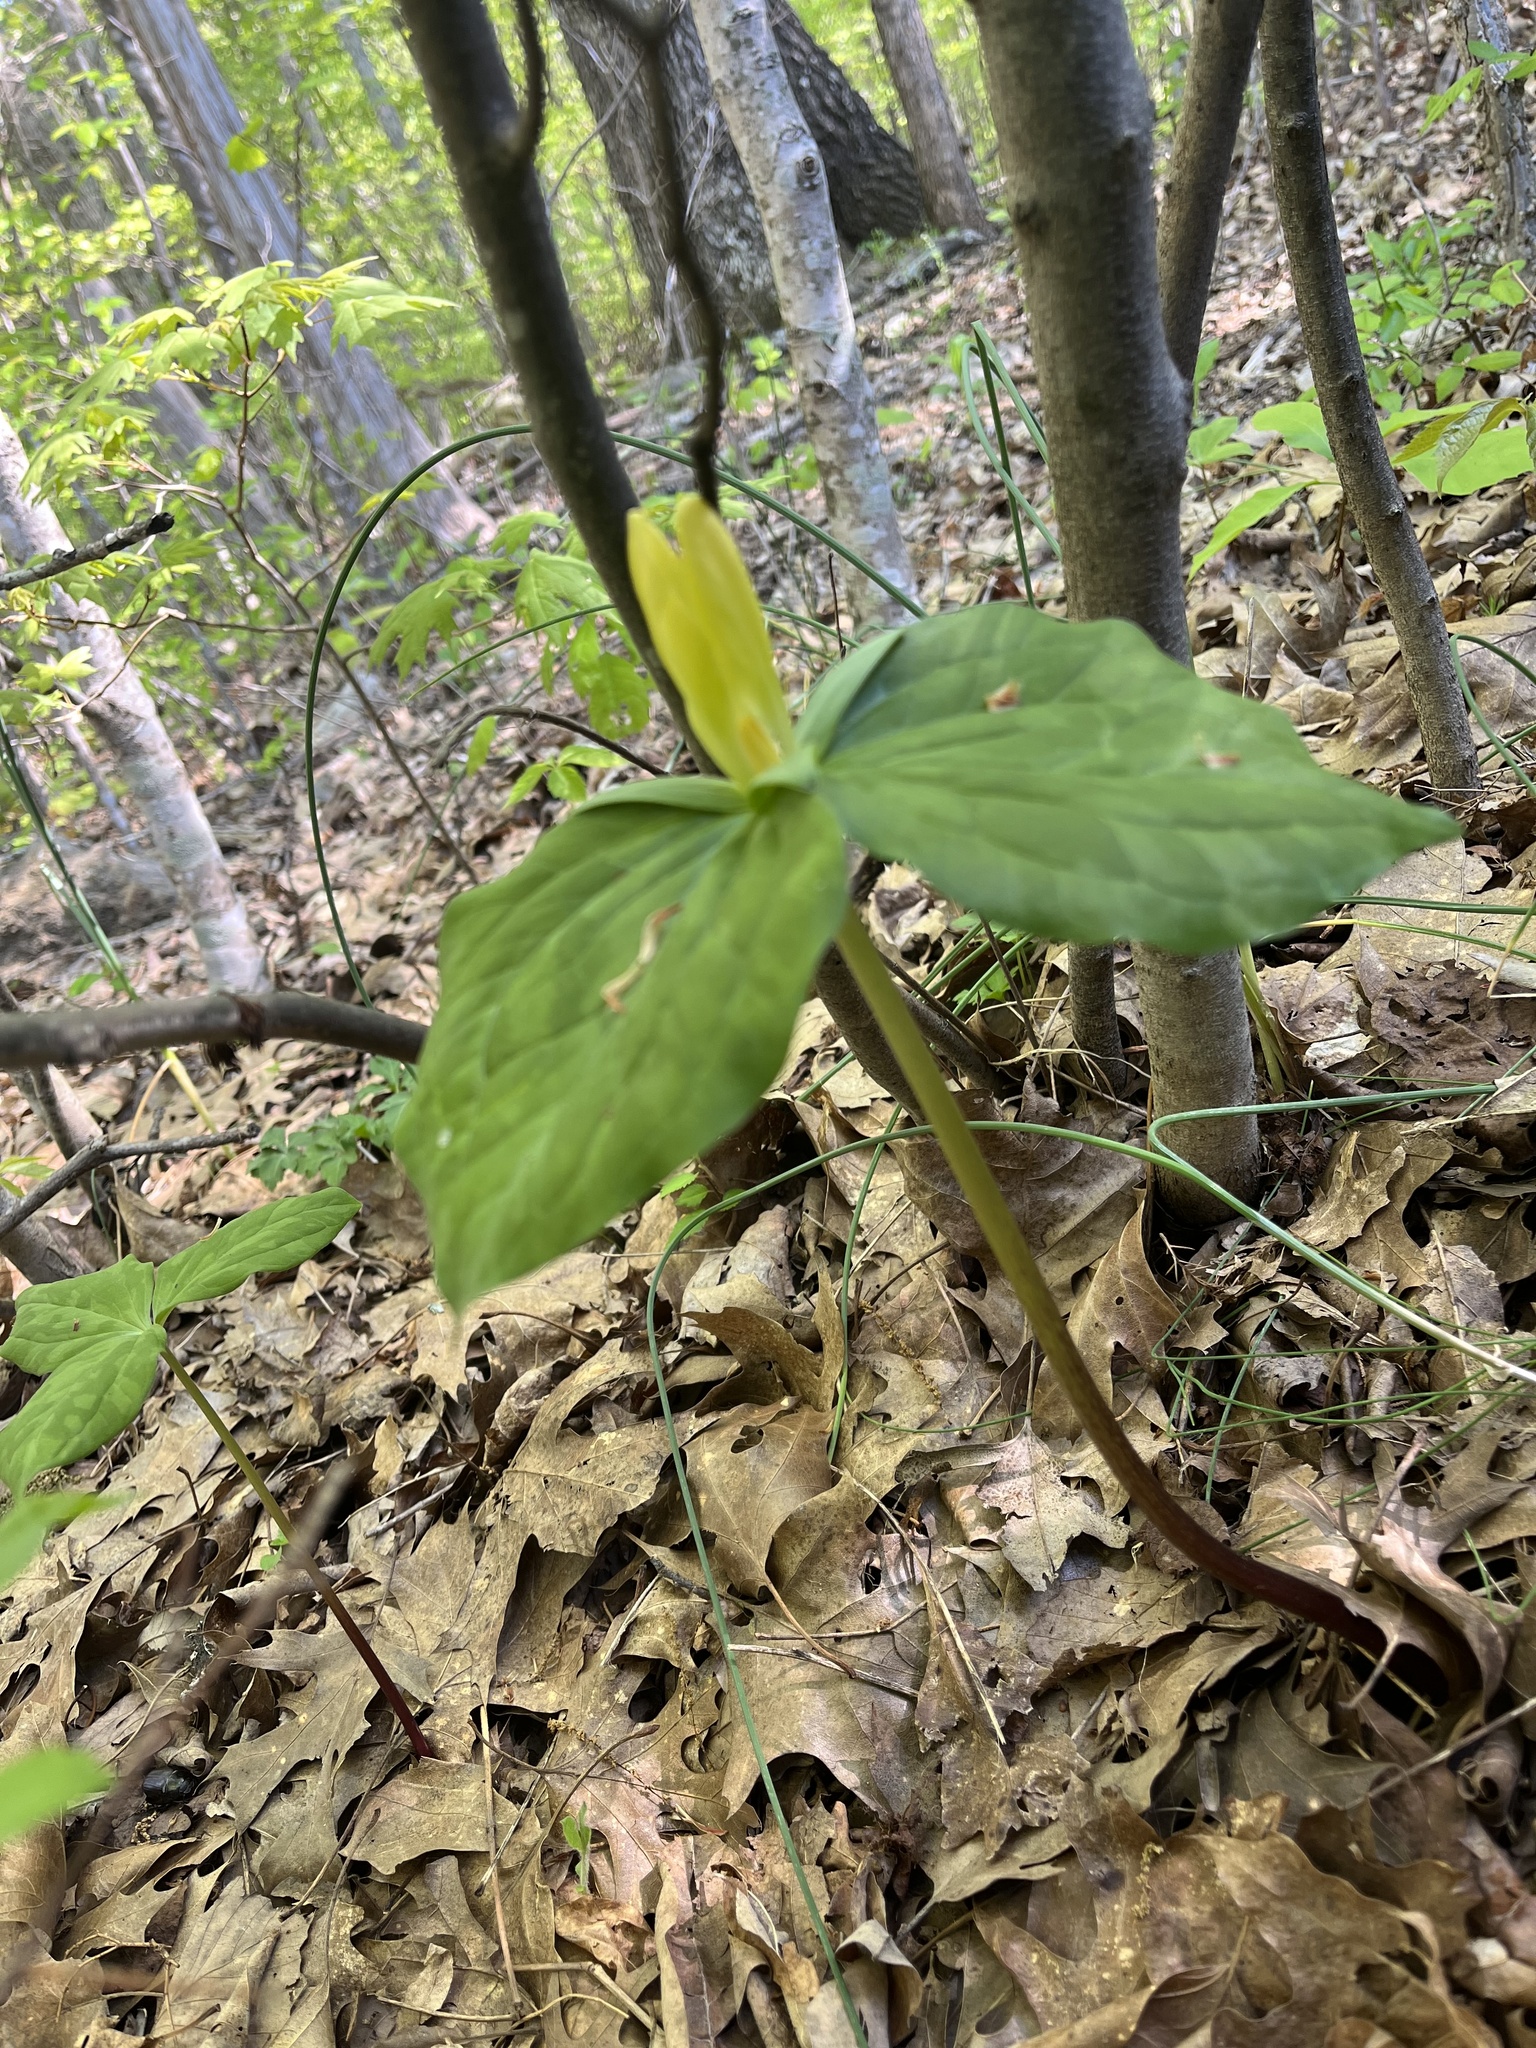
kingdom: Plantae
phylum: Tracheophyta
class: Liliopsida
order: Liliales
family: Melanthiaceae
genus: Trillium
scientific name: Trillium luteum
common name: Wax trillium
